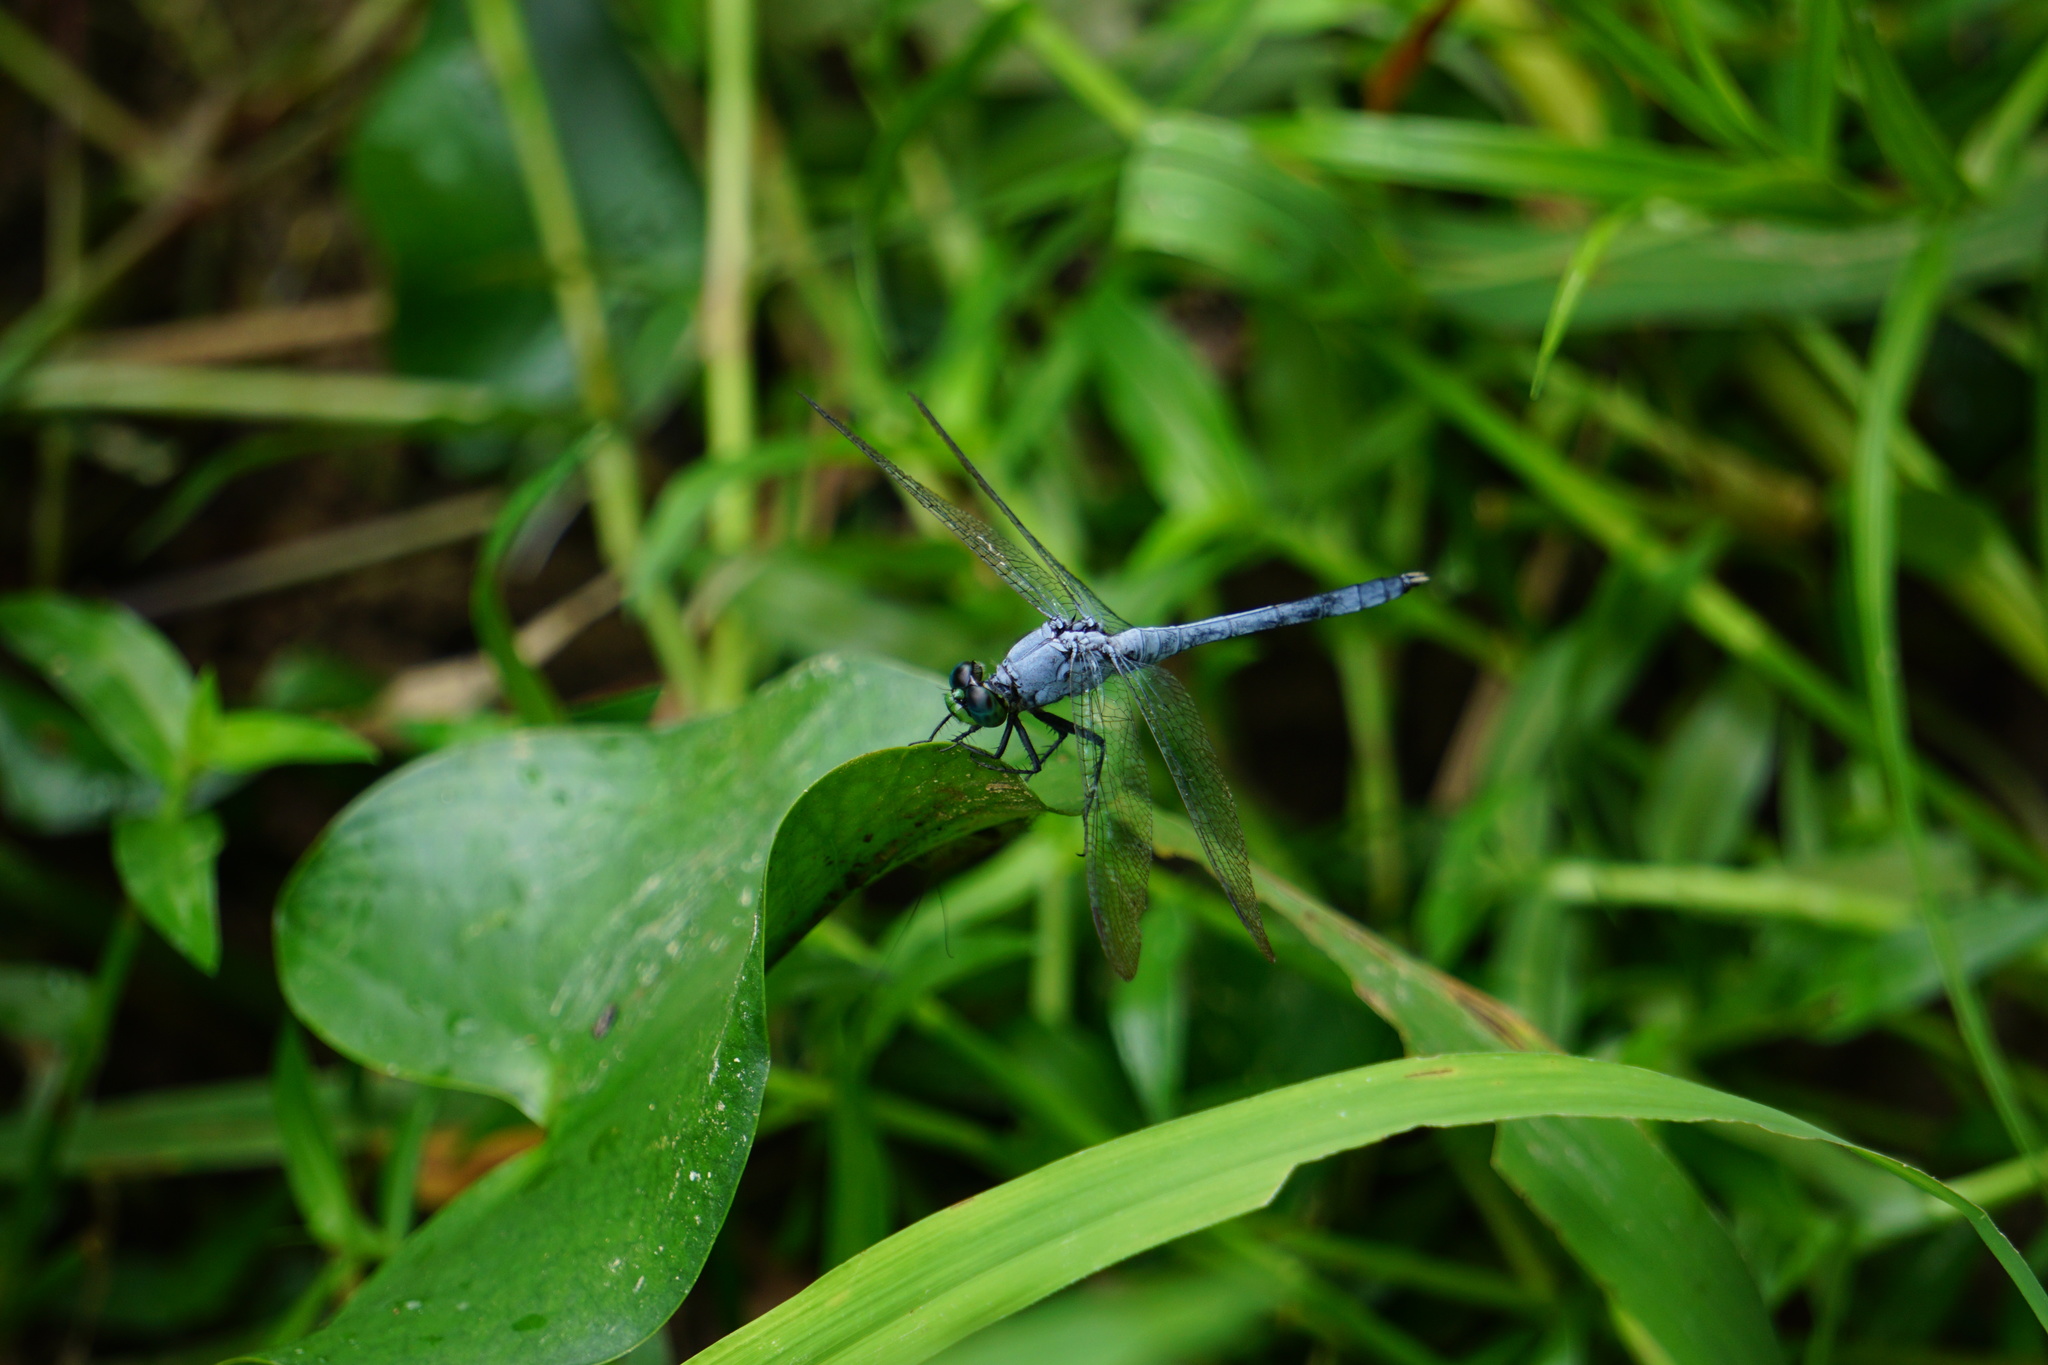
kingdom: Animalia
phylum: Arthropoda
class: Insecta
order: Odonata
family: Libellulidae
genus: Erythemis
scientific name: Erythemis simplicicollis
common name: Eastern pondhawk
